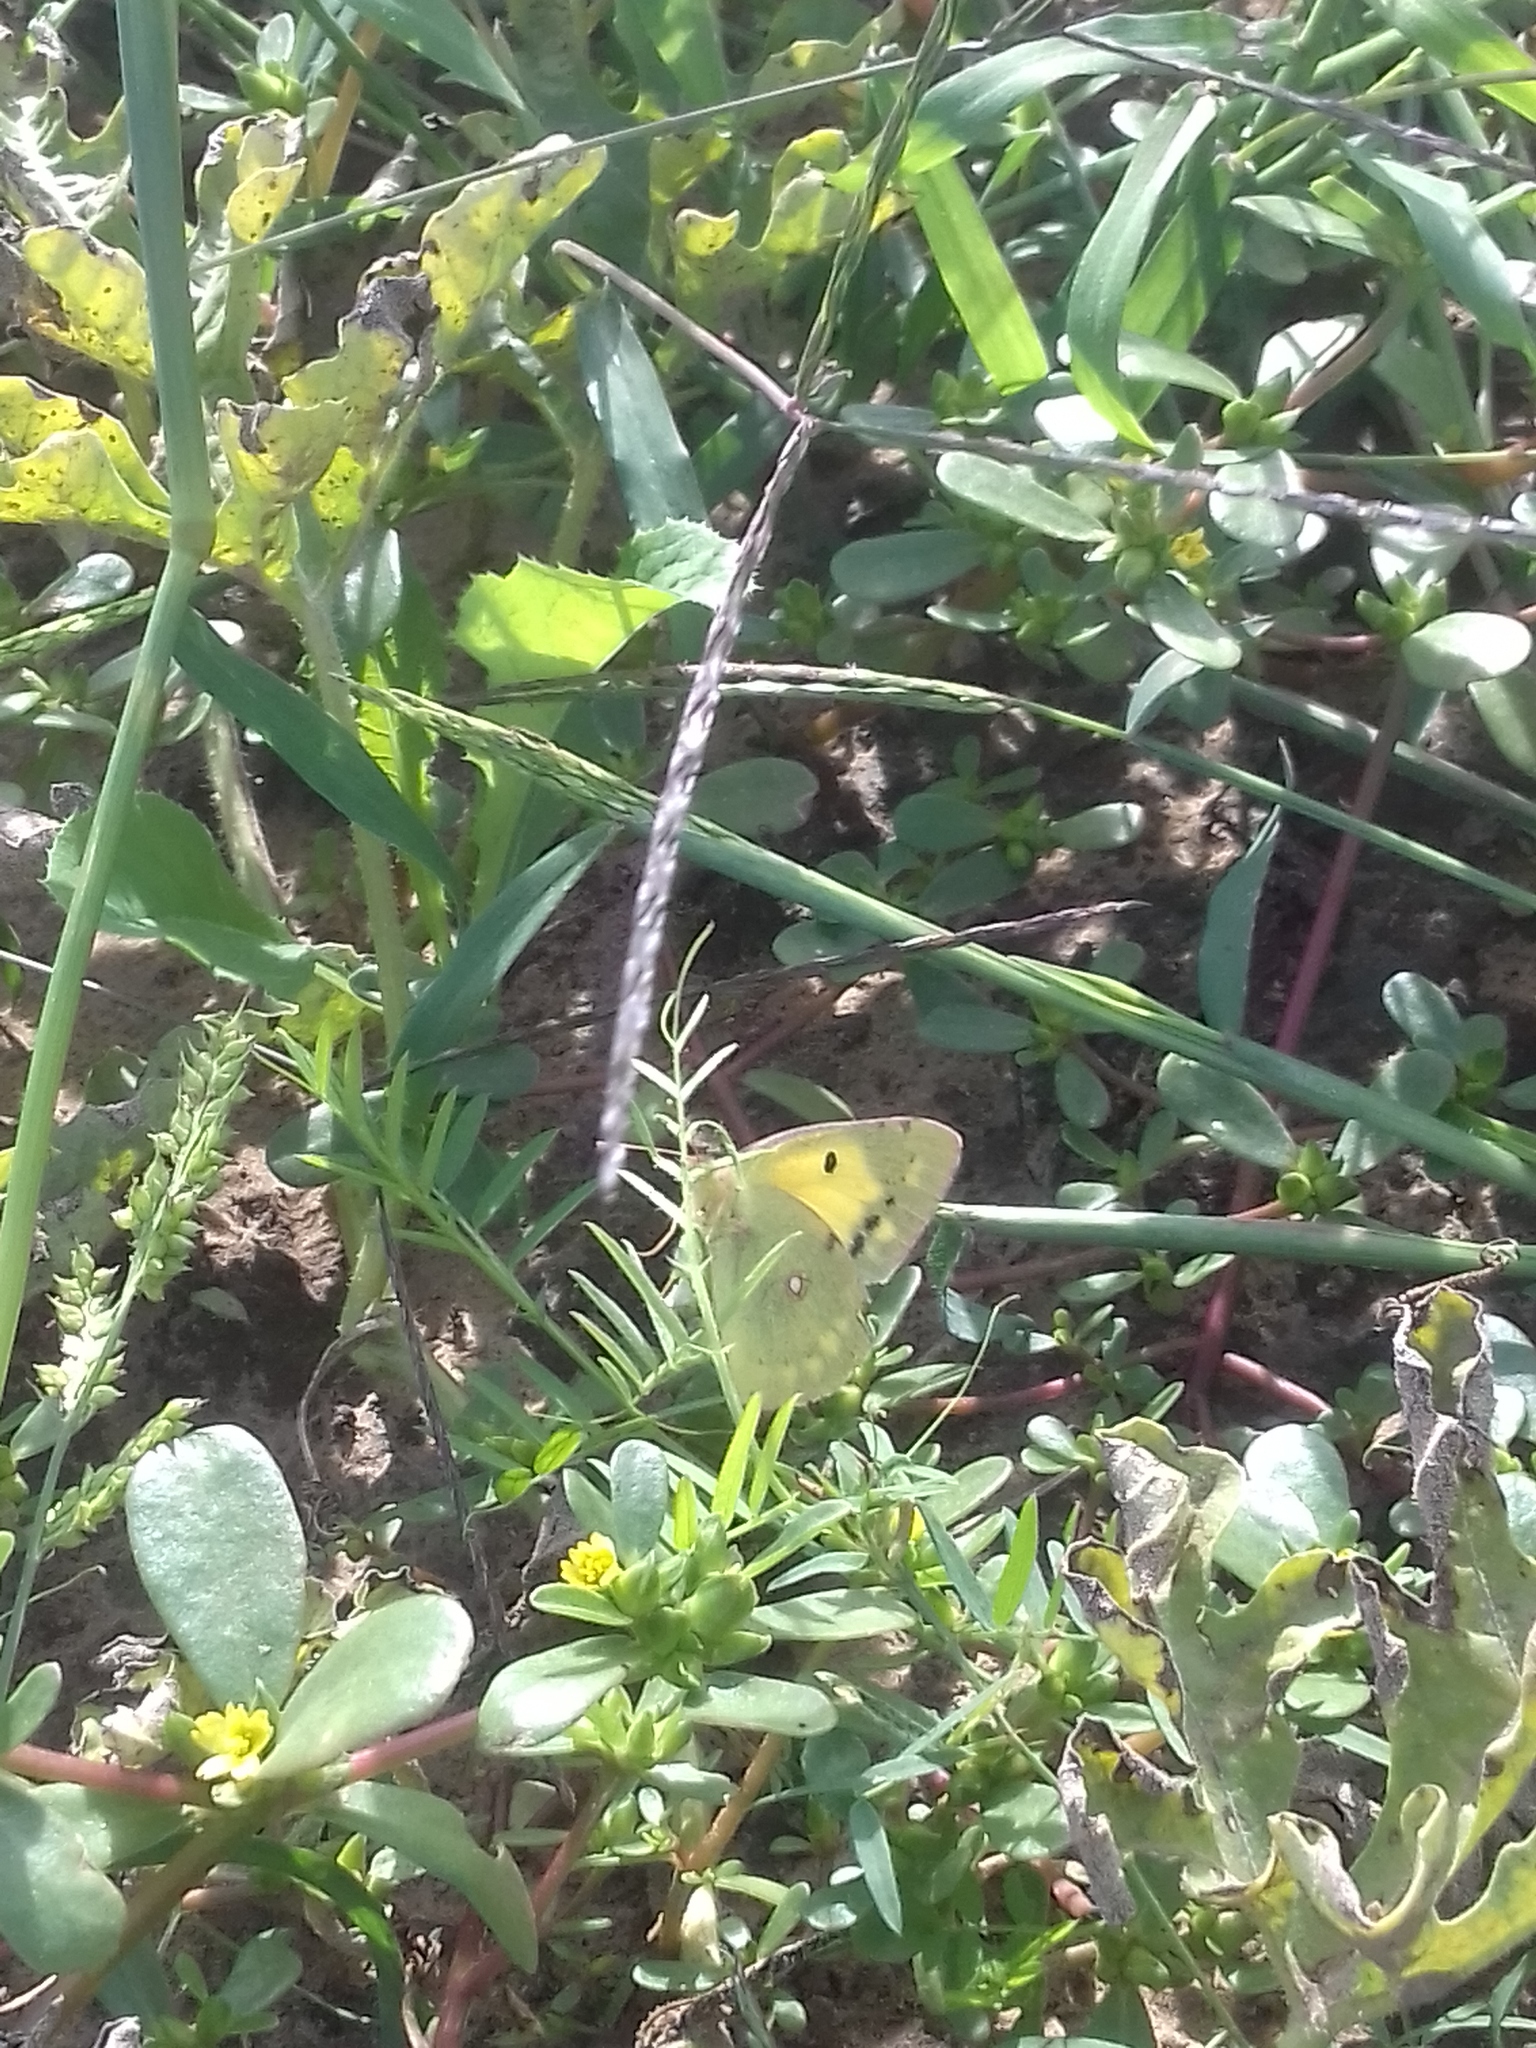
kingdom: Animalia
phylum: Arthropoda
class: Insecta
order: Lepidoptera
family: Pieridae
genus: Colias
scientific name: Colias croceus
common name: Clouded yellow
